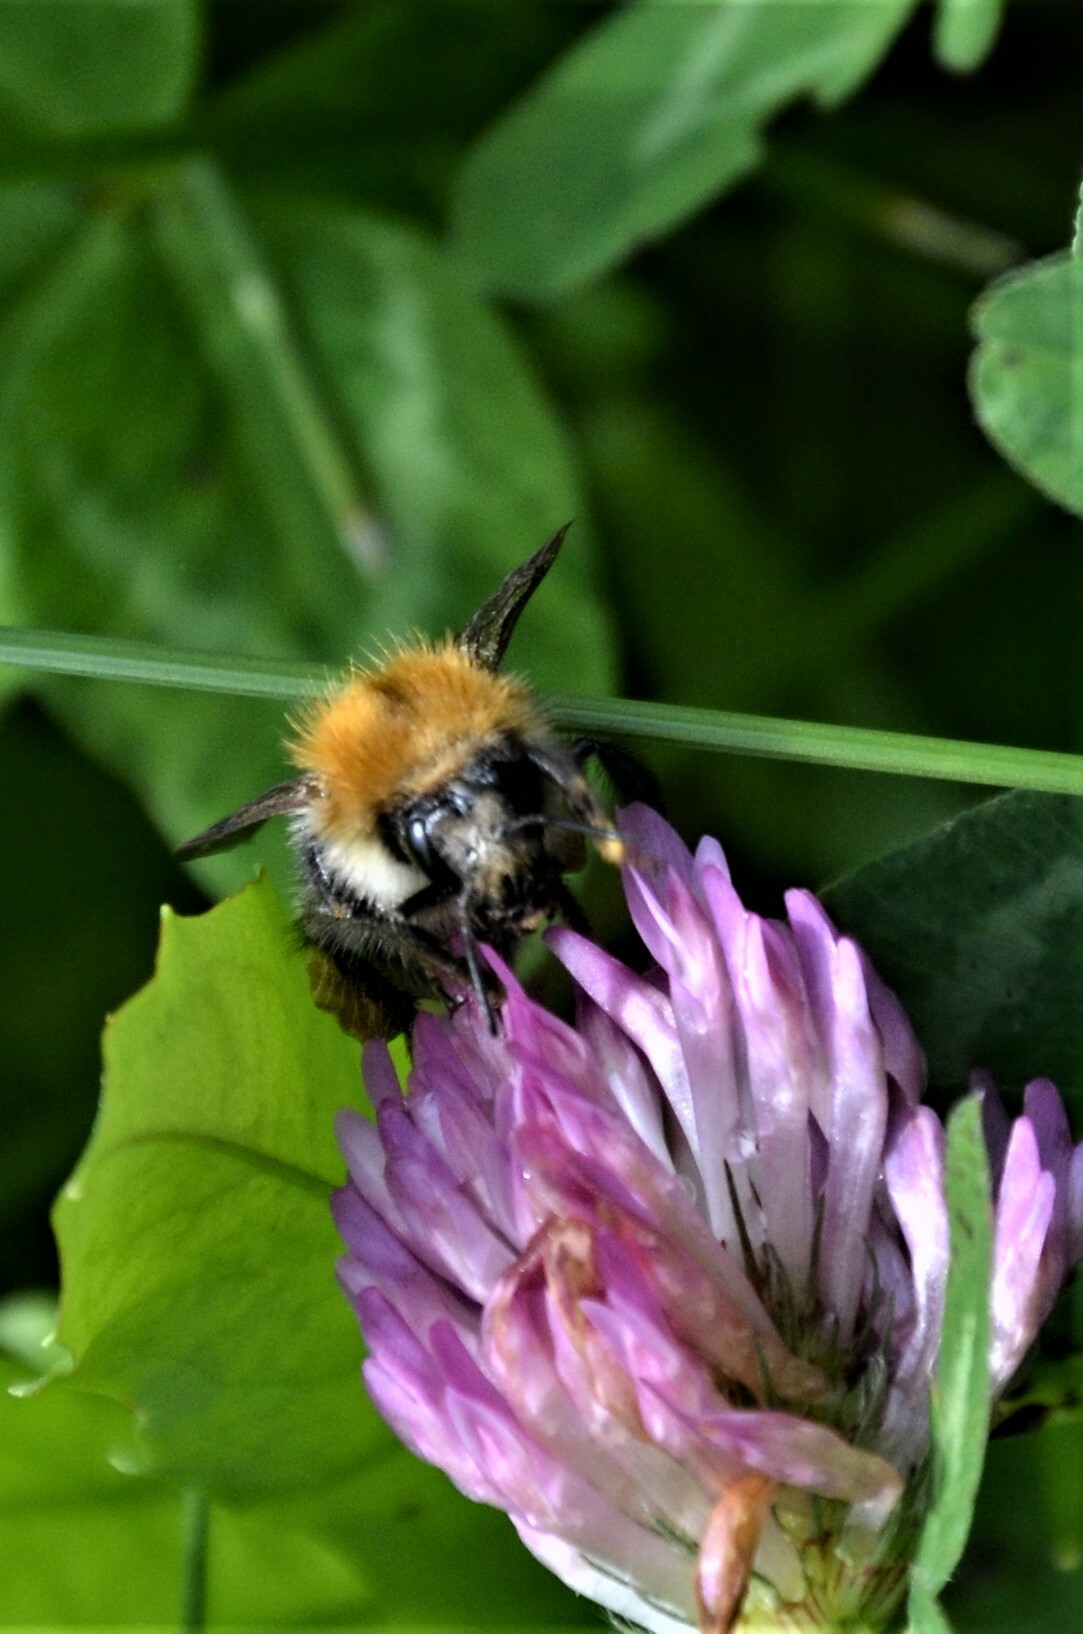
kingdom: Animalia
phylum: Arthropoda
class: Insecta
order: Hymenoptera
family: Apidae
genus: Bombus
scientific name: Bombus pascuorum
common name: Common carder bee
